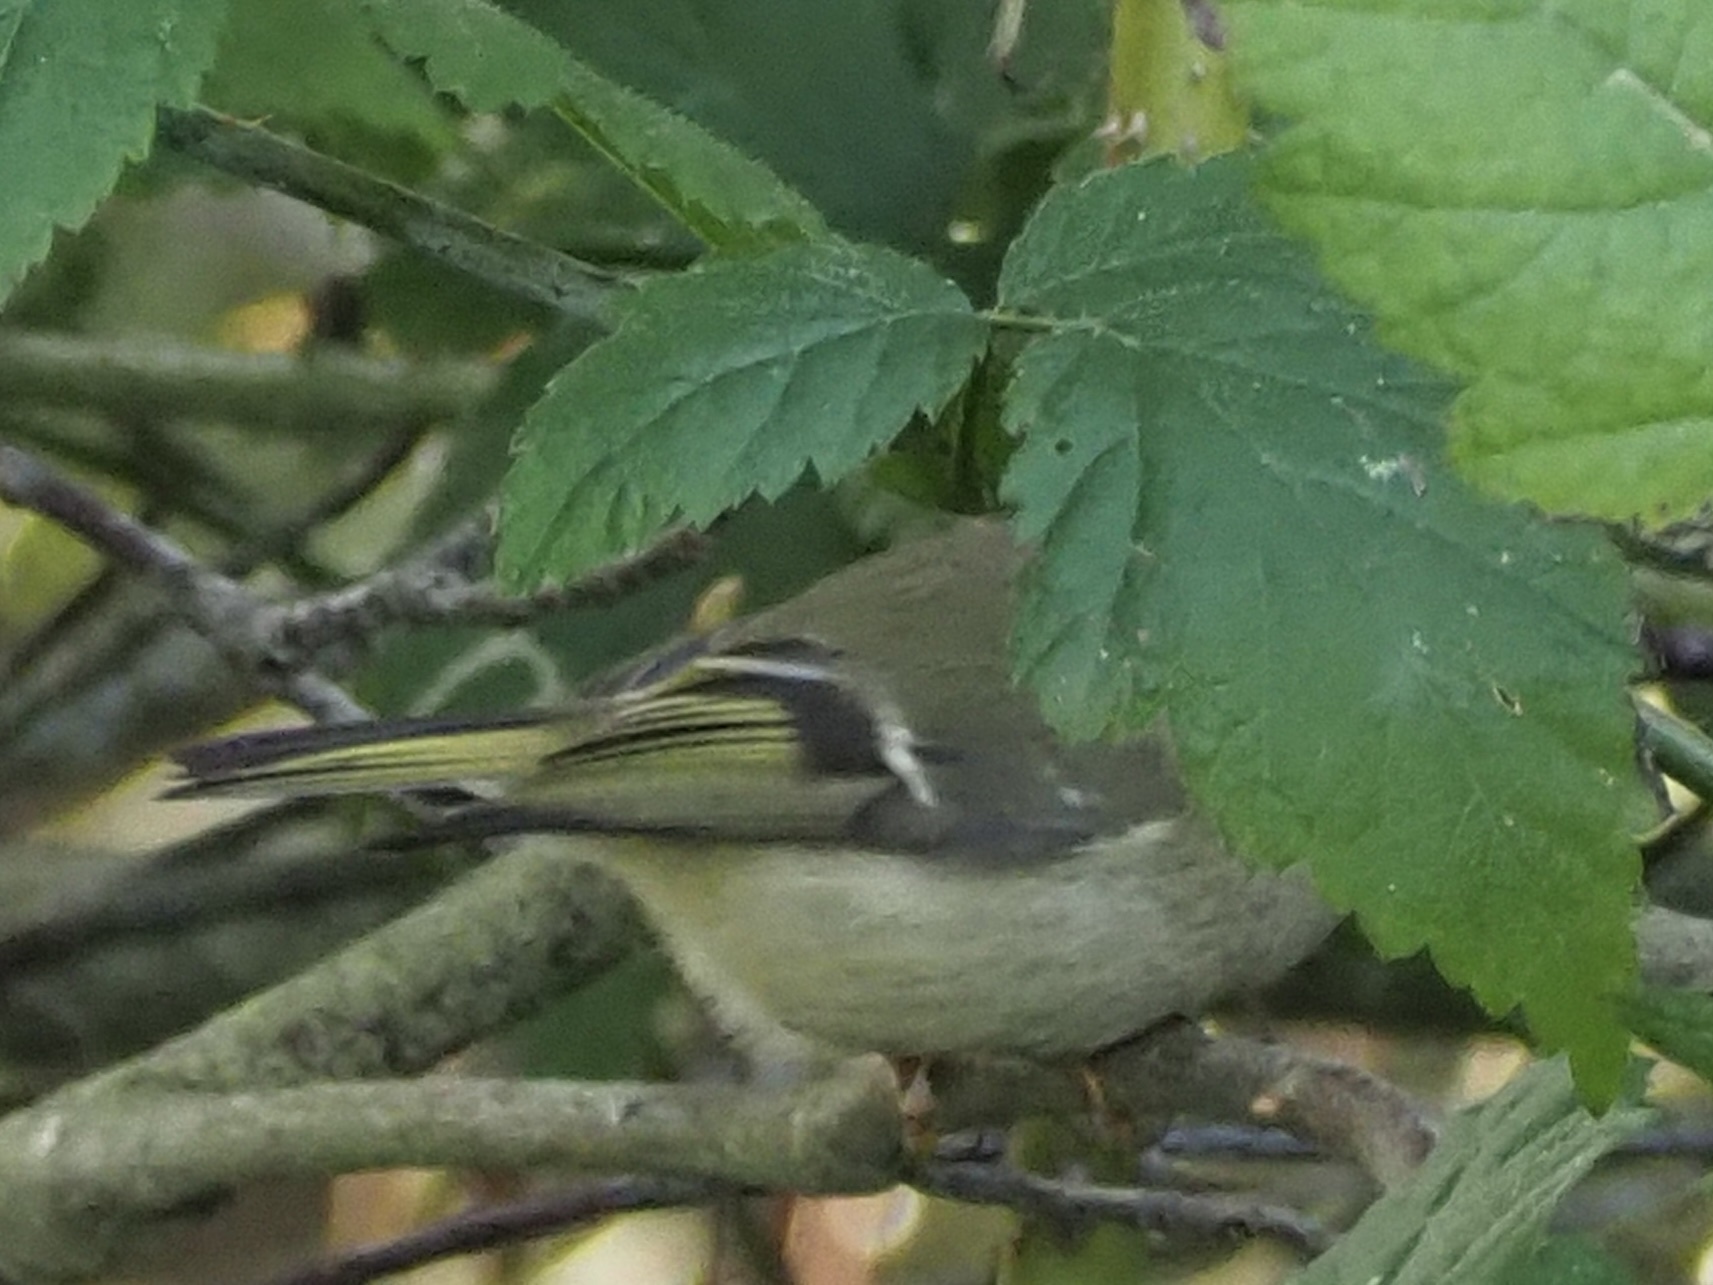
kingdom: Animalia
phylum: Chordata
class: Aves
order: Passeriformes
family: Regulidae
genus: Regulus
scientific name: Regulus calendula
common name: Ruby-crowned kinglet
